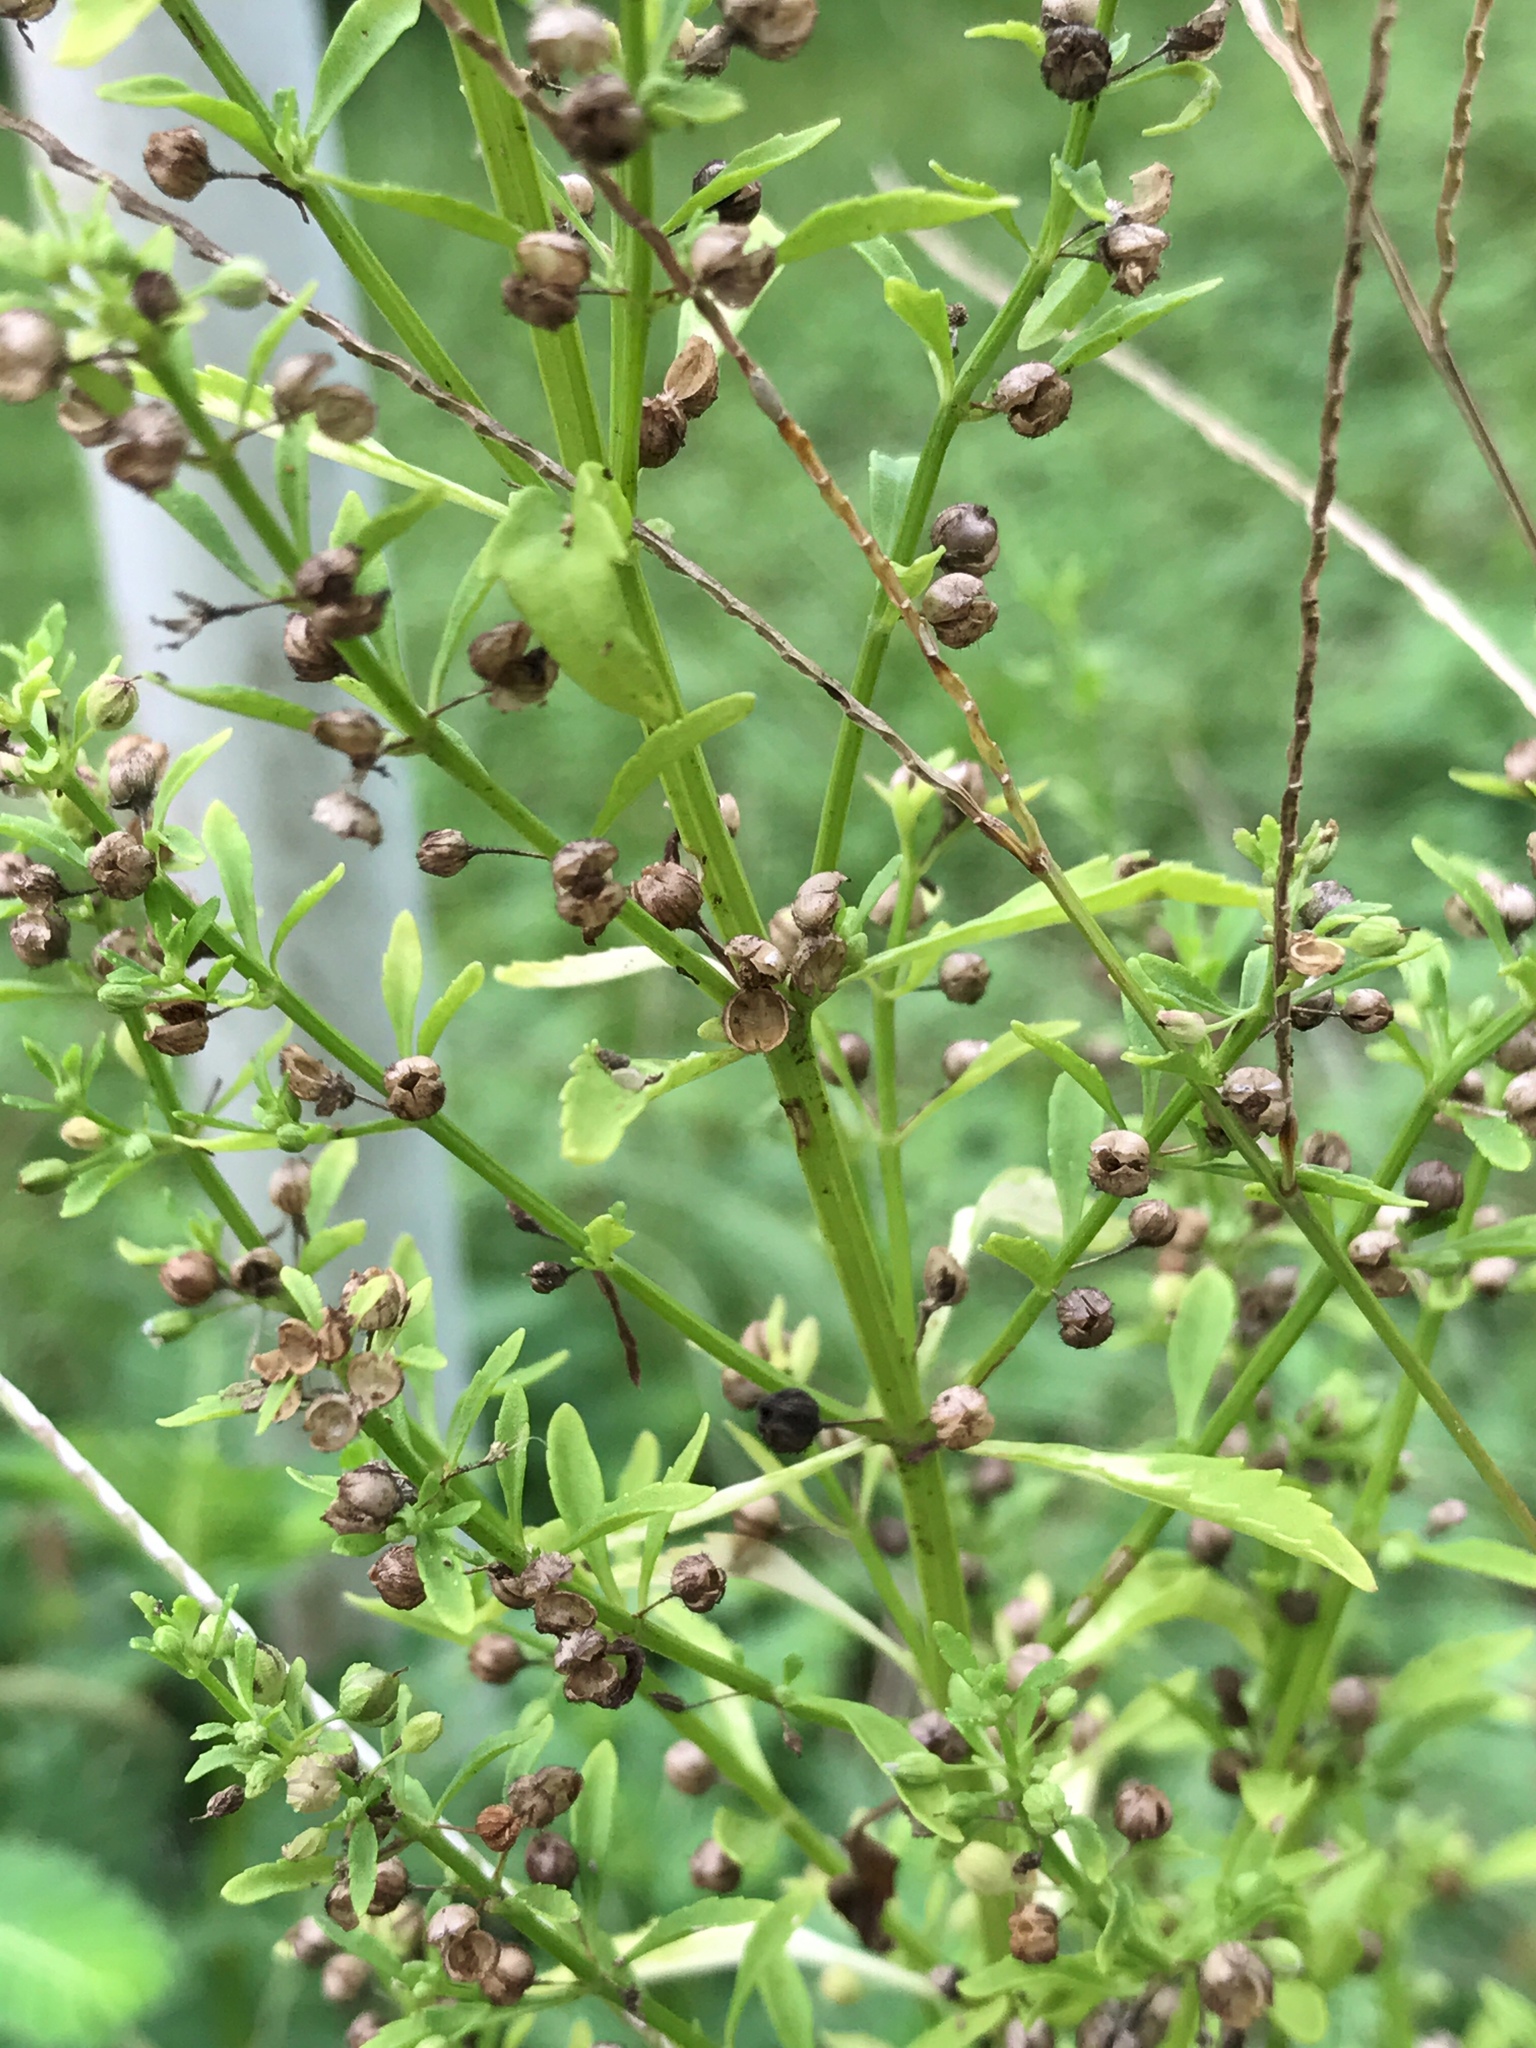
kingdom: Plantae
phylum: Tracheophyta
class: Magnoliopsida
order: Lamiales
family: Plantaginaceae
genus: Scoparia
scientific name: Scoparia dulcis
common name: Scoparia-weed
